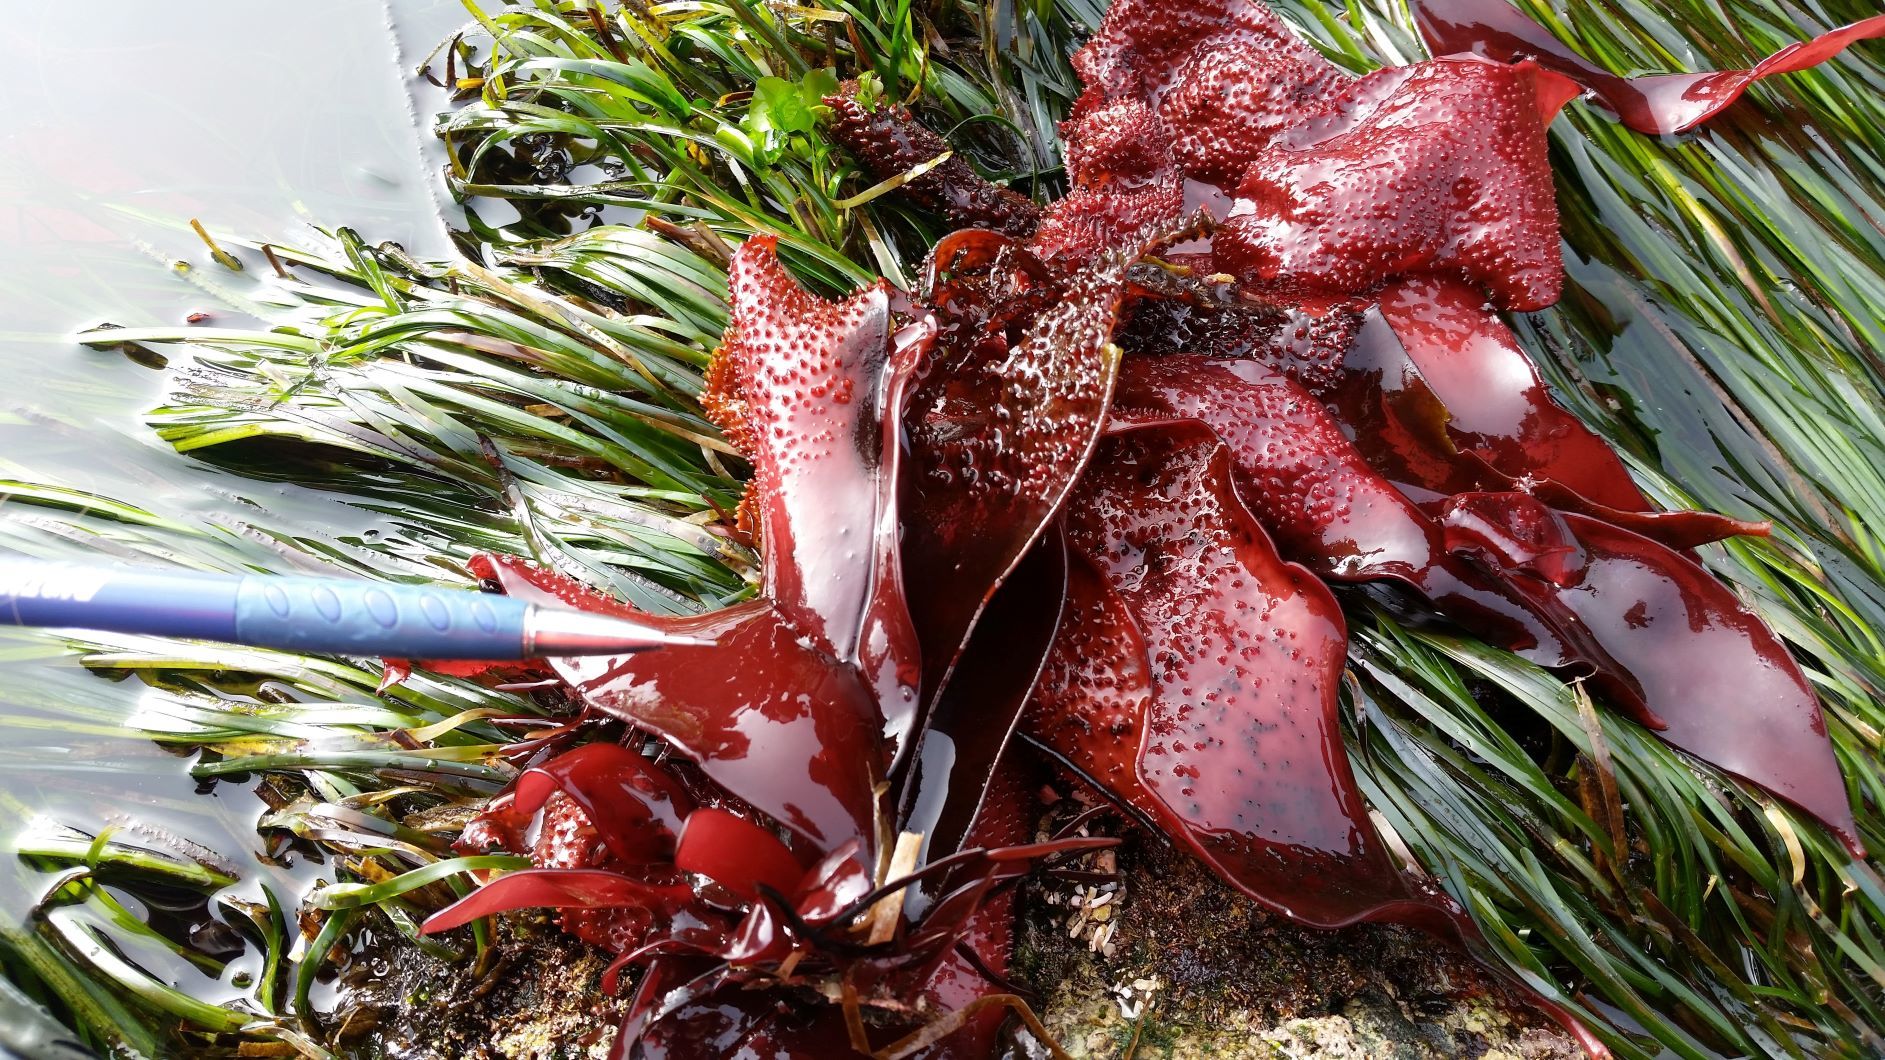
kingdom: Plantae
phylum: Rhodophyta
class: Florideophyceae
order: Gigartinales
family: Gigartinaceae
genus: Chondracanthus
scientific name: Chondracanthus exasperatus
